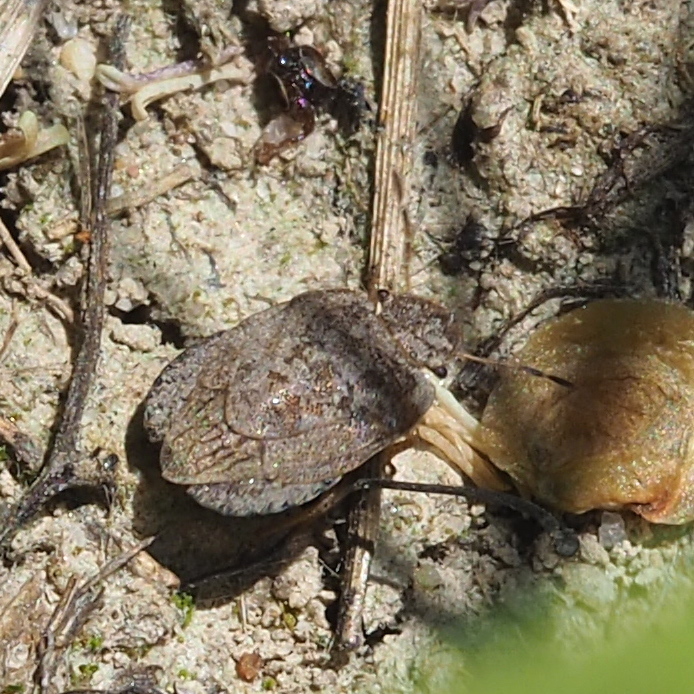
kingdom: Animalia
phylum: Arthropoda
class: Insecta
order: Hemiptera
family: Pentatomidae
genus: Sciocoris
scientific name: Sciocoris microphthalmus
